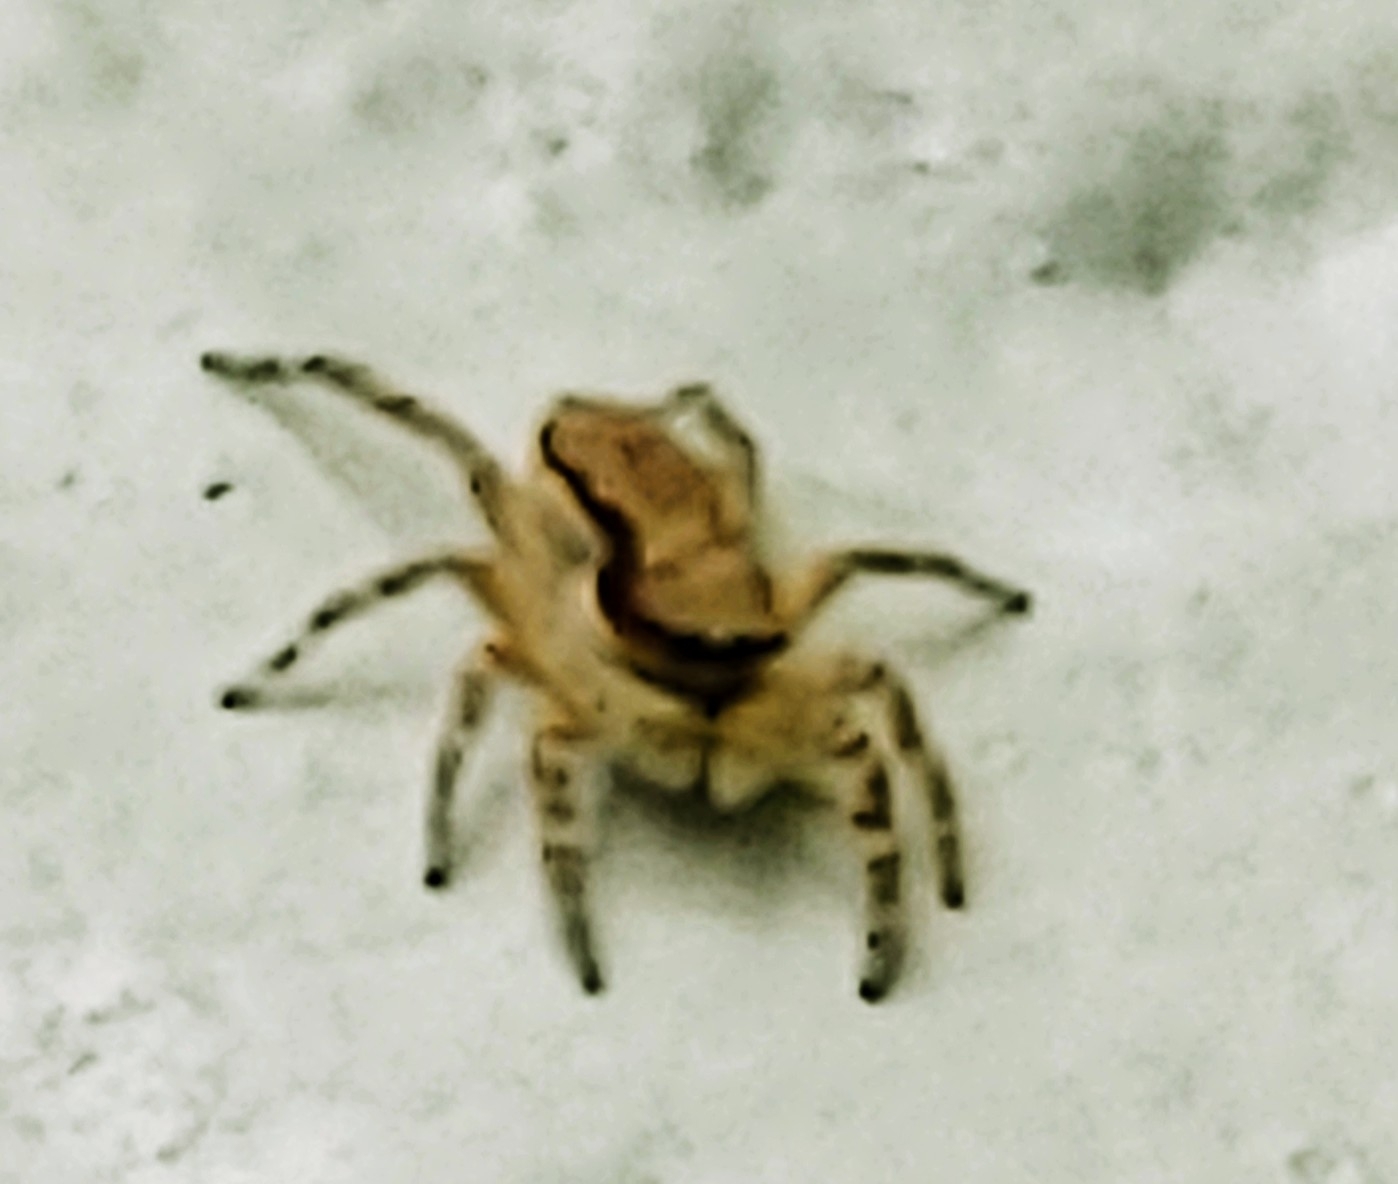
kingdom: Animalia
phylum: Arthropoda
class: Arachnida
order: Araneae
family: Salticidae
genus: Menemerus
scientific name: Menemerus bivittatus
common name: Gray wall jumper
